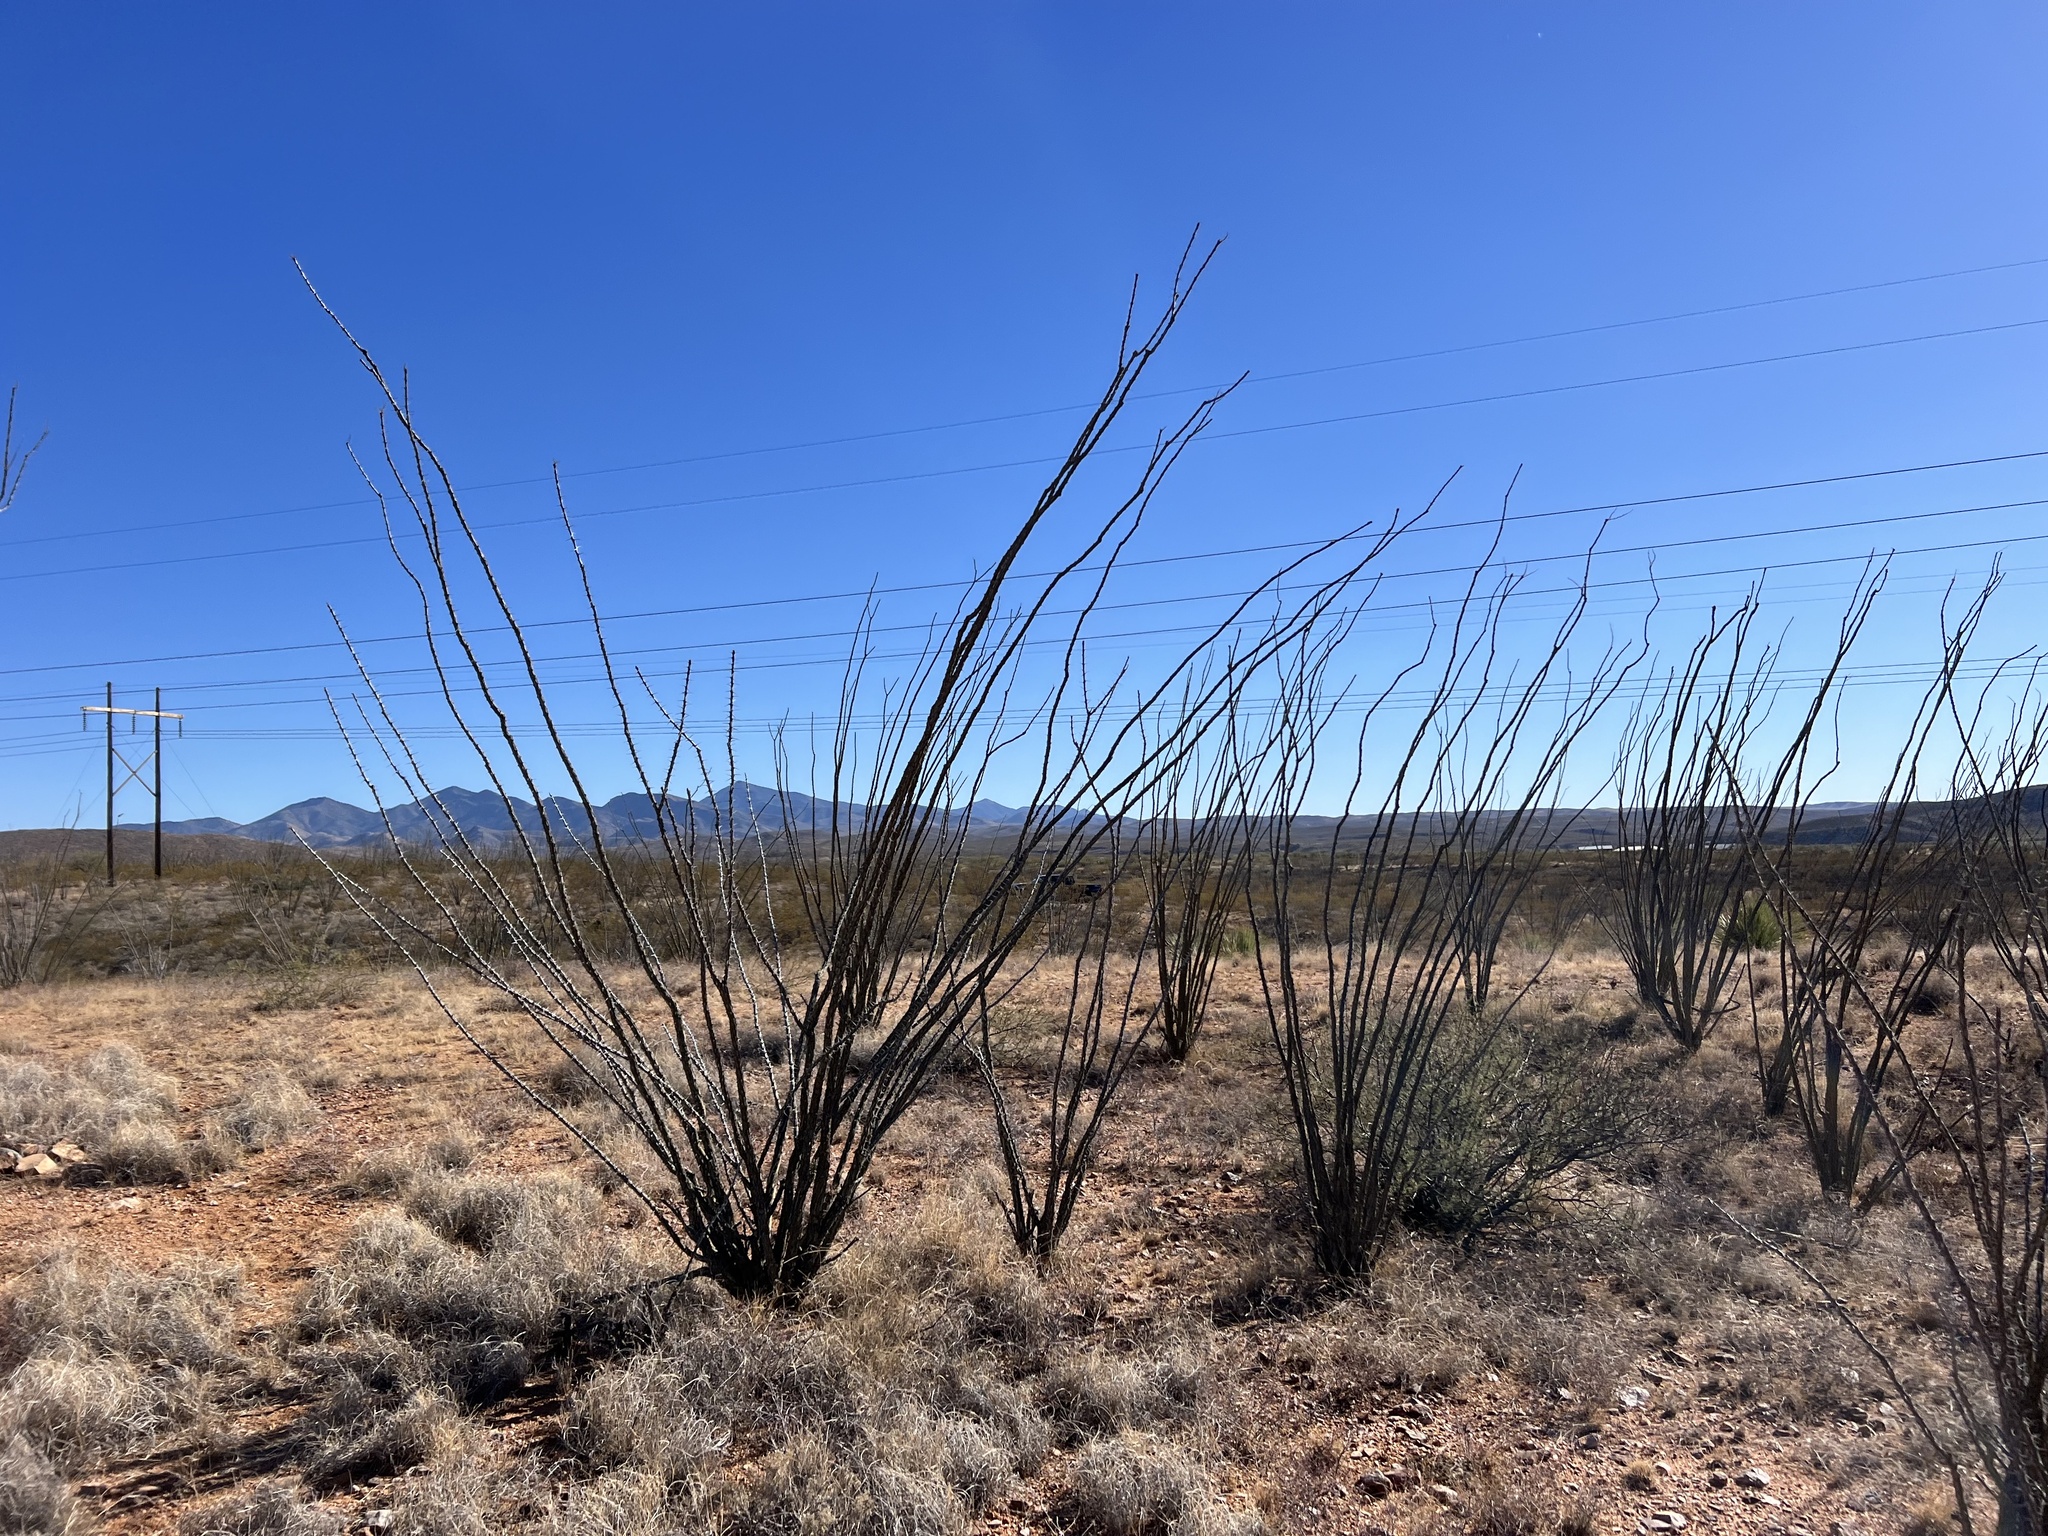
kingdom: Plantae
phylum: Tracheophyta
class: Magnoliopsida
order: Ericales
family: Fouquieriaceae
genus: Fouquieria
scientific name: Fouquieria splendens
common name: Vine-cactus
